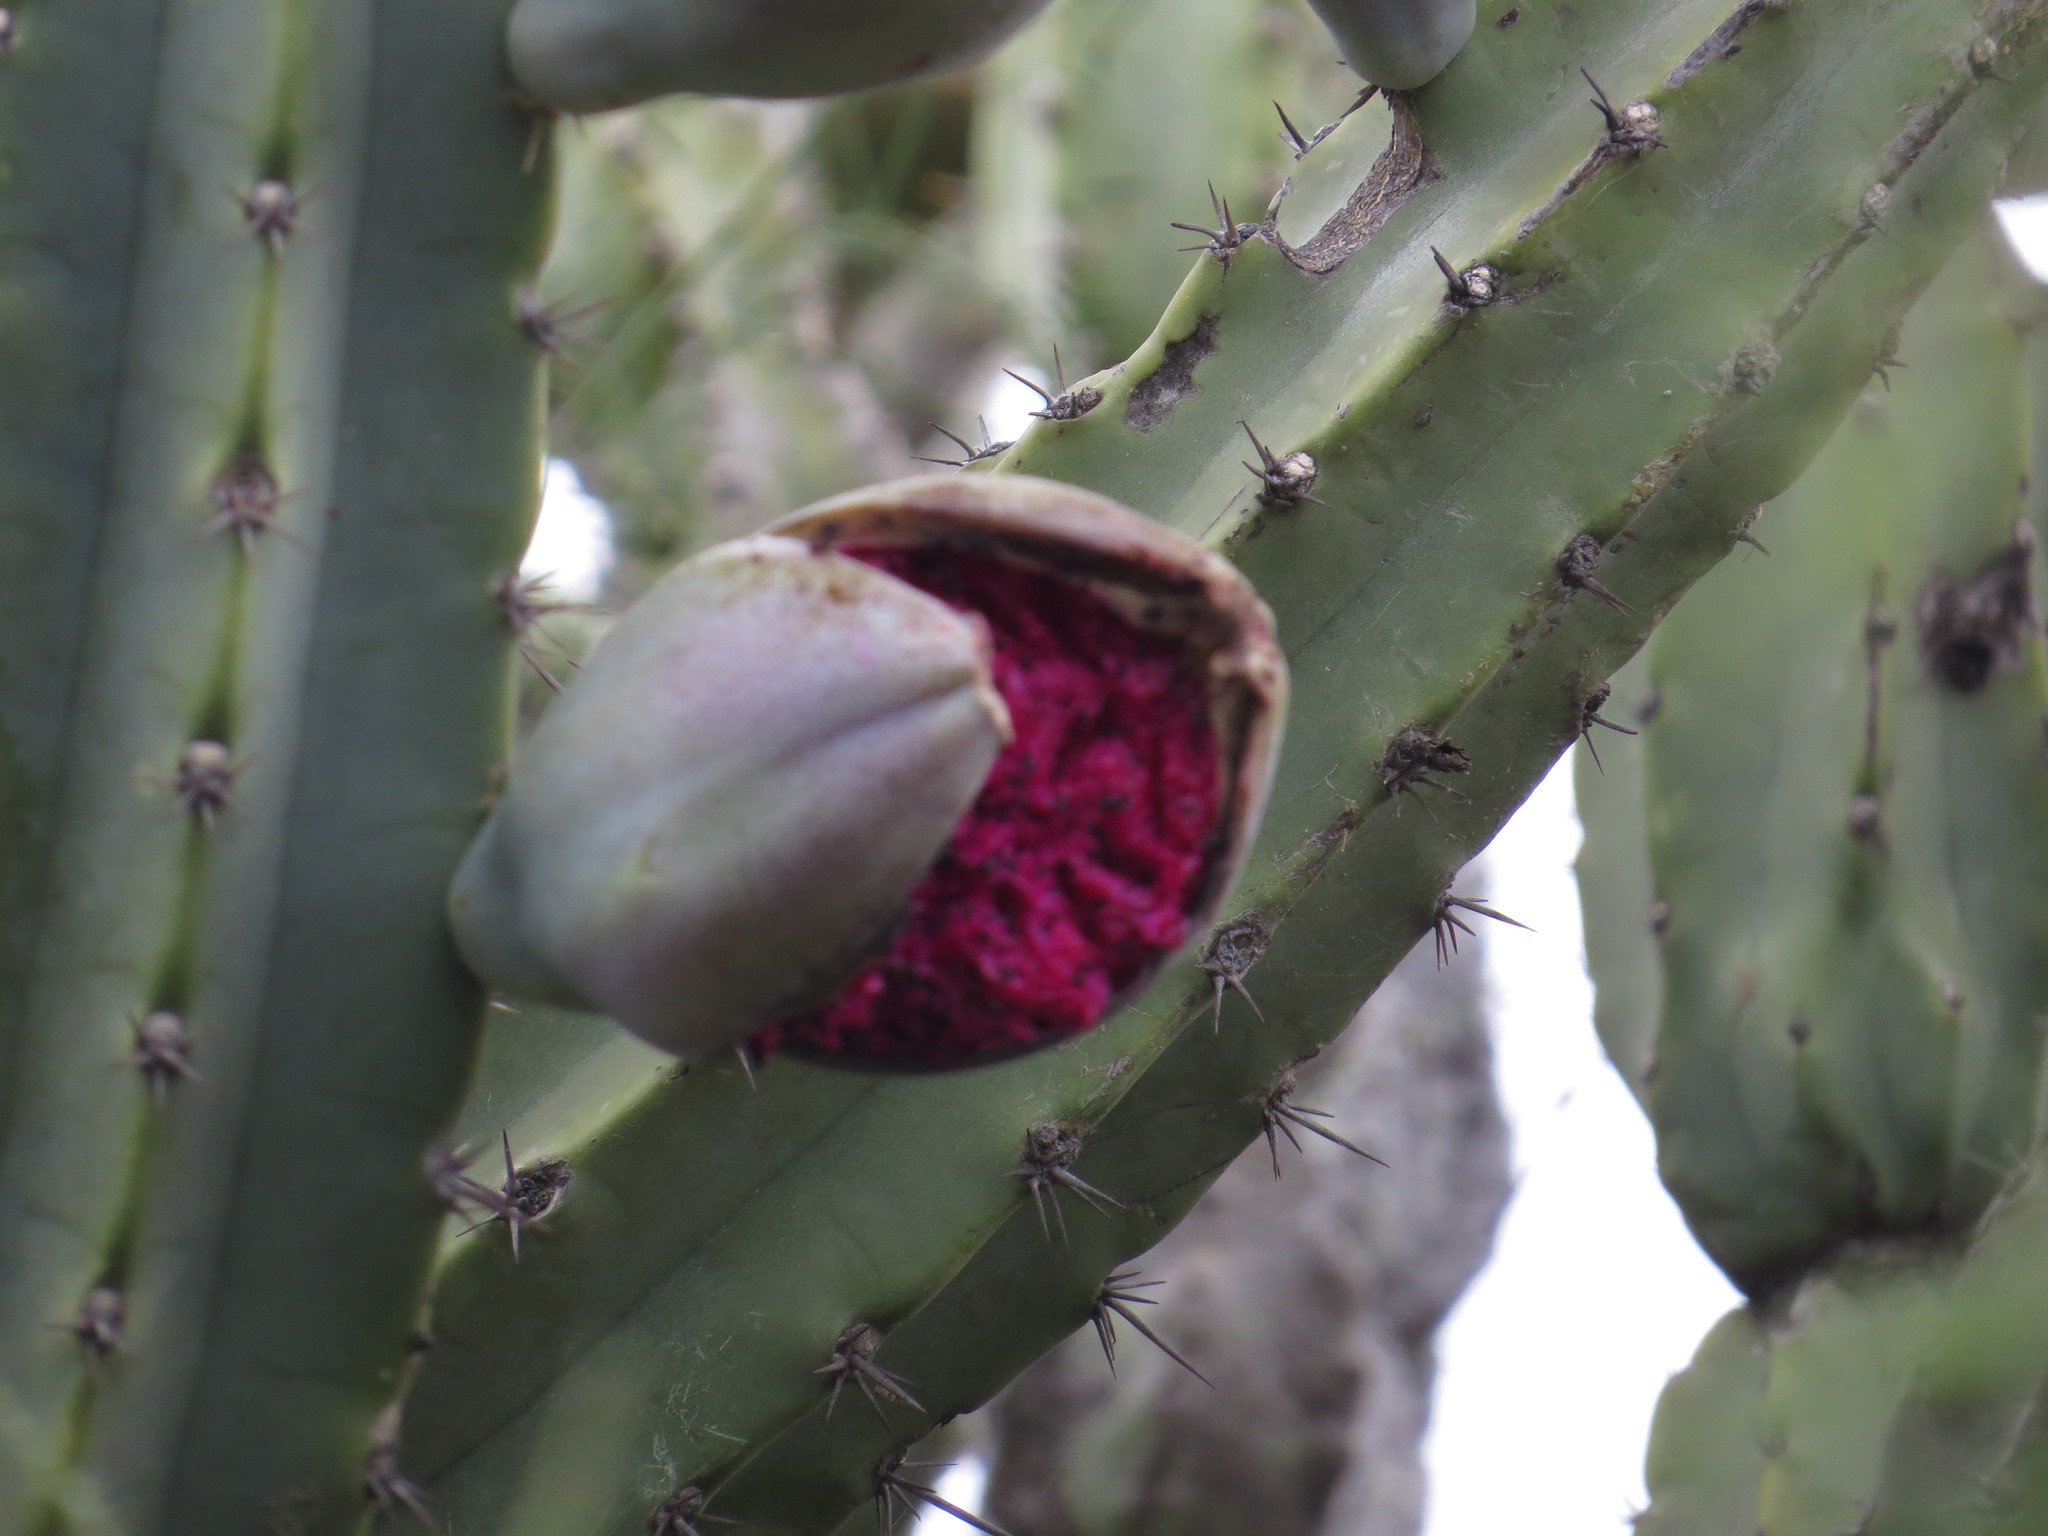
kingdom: Plantae
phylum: Tracheophyta
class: Magnoliopsida
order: Caryophyllales
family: Cactaceae
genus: Cereus
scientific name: Cereus forbesii
